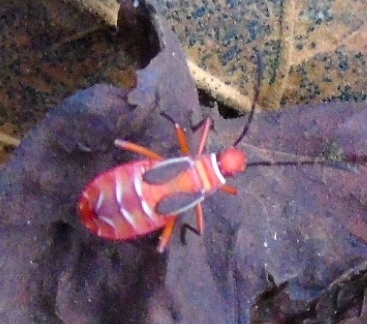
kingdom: Animalia
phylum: Arthropoda
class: Insecta
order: Hemiptera
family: Pyrrhocoridae
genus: Dysdercus
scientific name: Dysdercus
